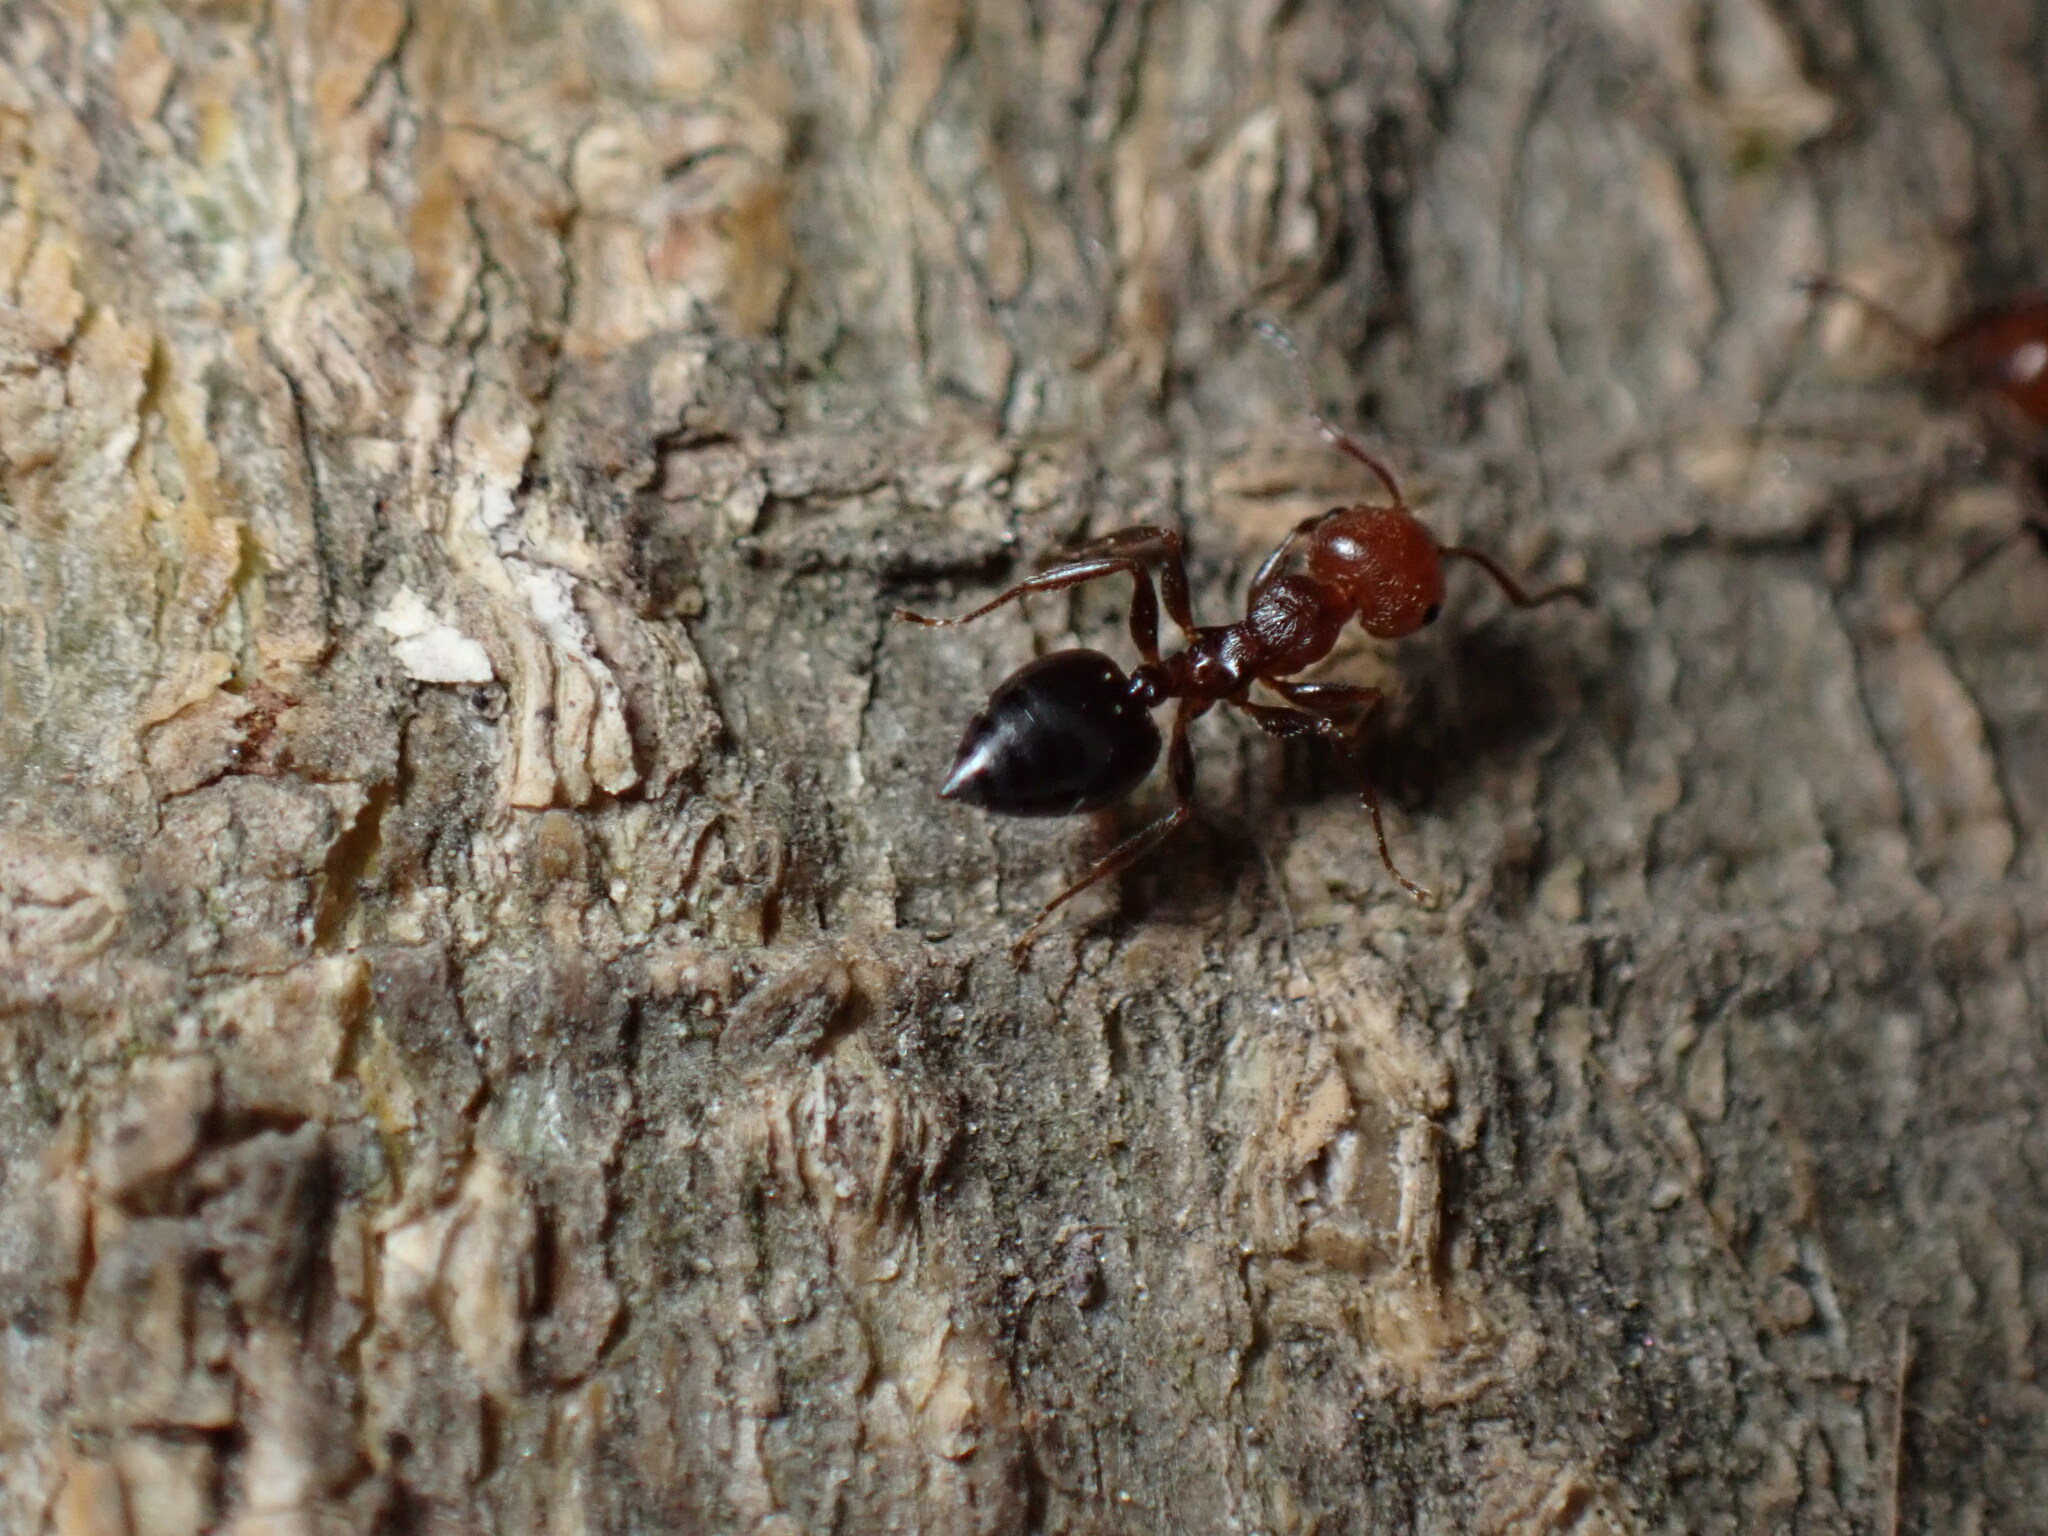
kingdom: Animalia
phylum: Arthropoda
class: Insecta
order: Hymenoptera
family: Formicidae
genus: Crematogaster
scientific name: Crematogaster scutellaris
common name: Fourmi du liège
